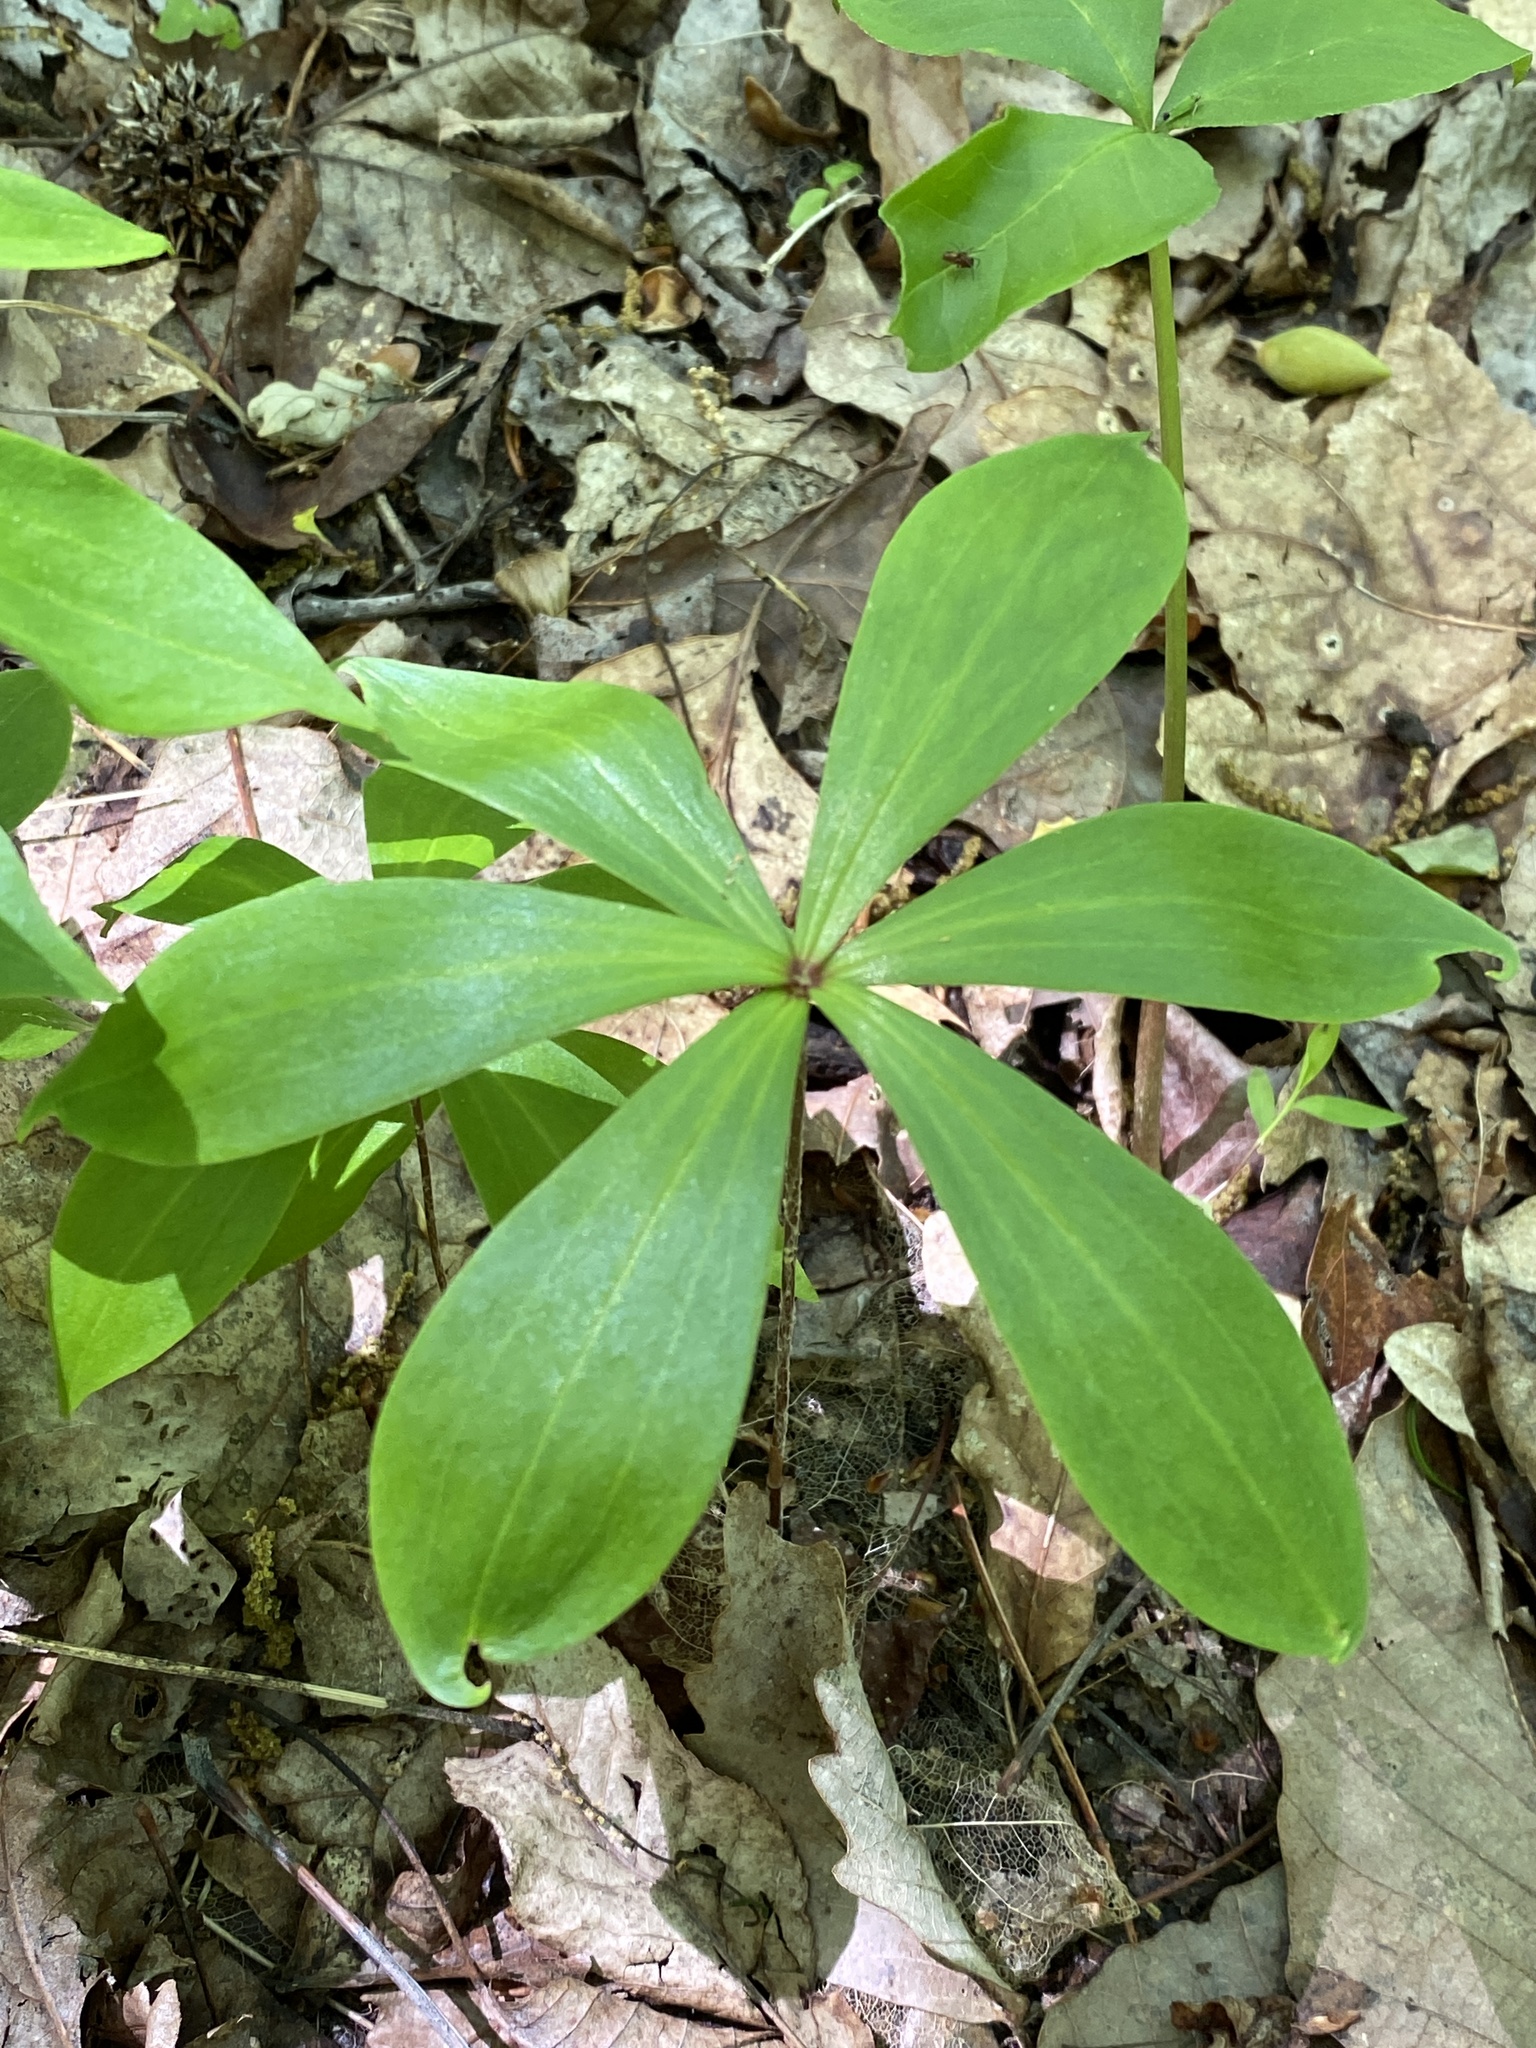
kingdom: Plantae
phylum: Tracheophyta
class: Liliopsida
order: Liliales
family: Liliaceae
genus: Medeola
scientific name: Medeola virginiana
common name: Indian cucumber-root
